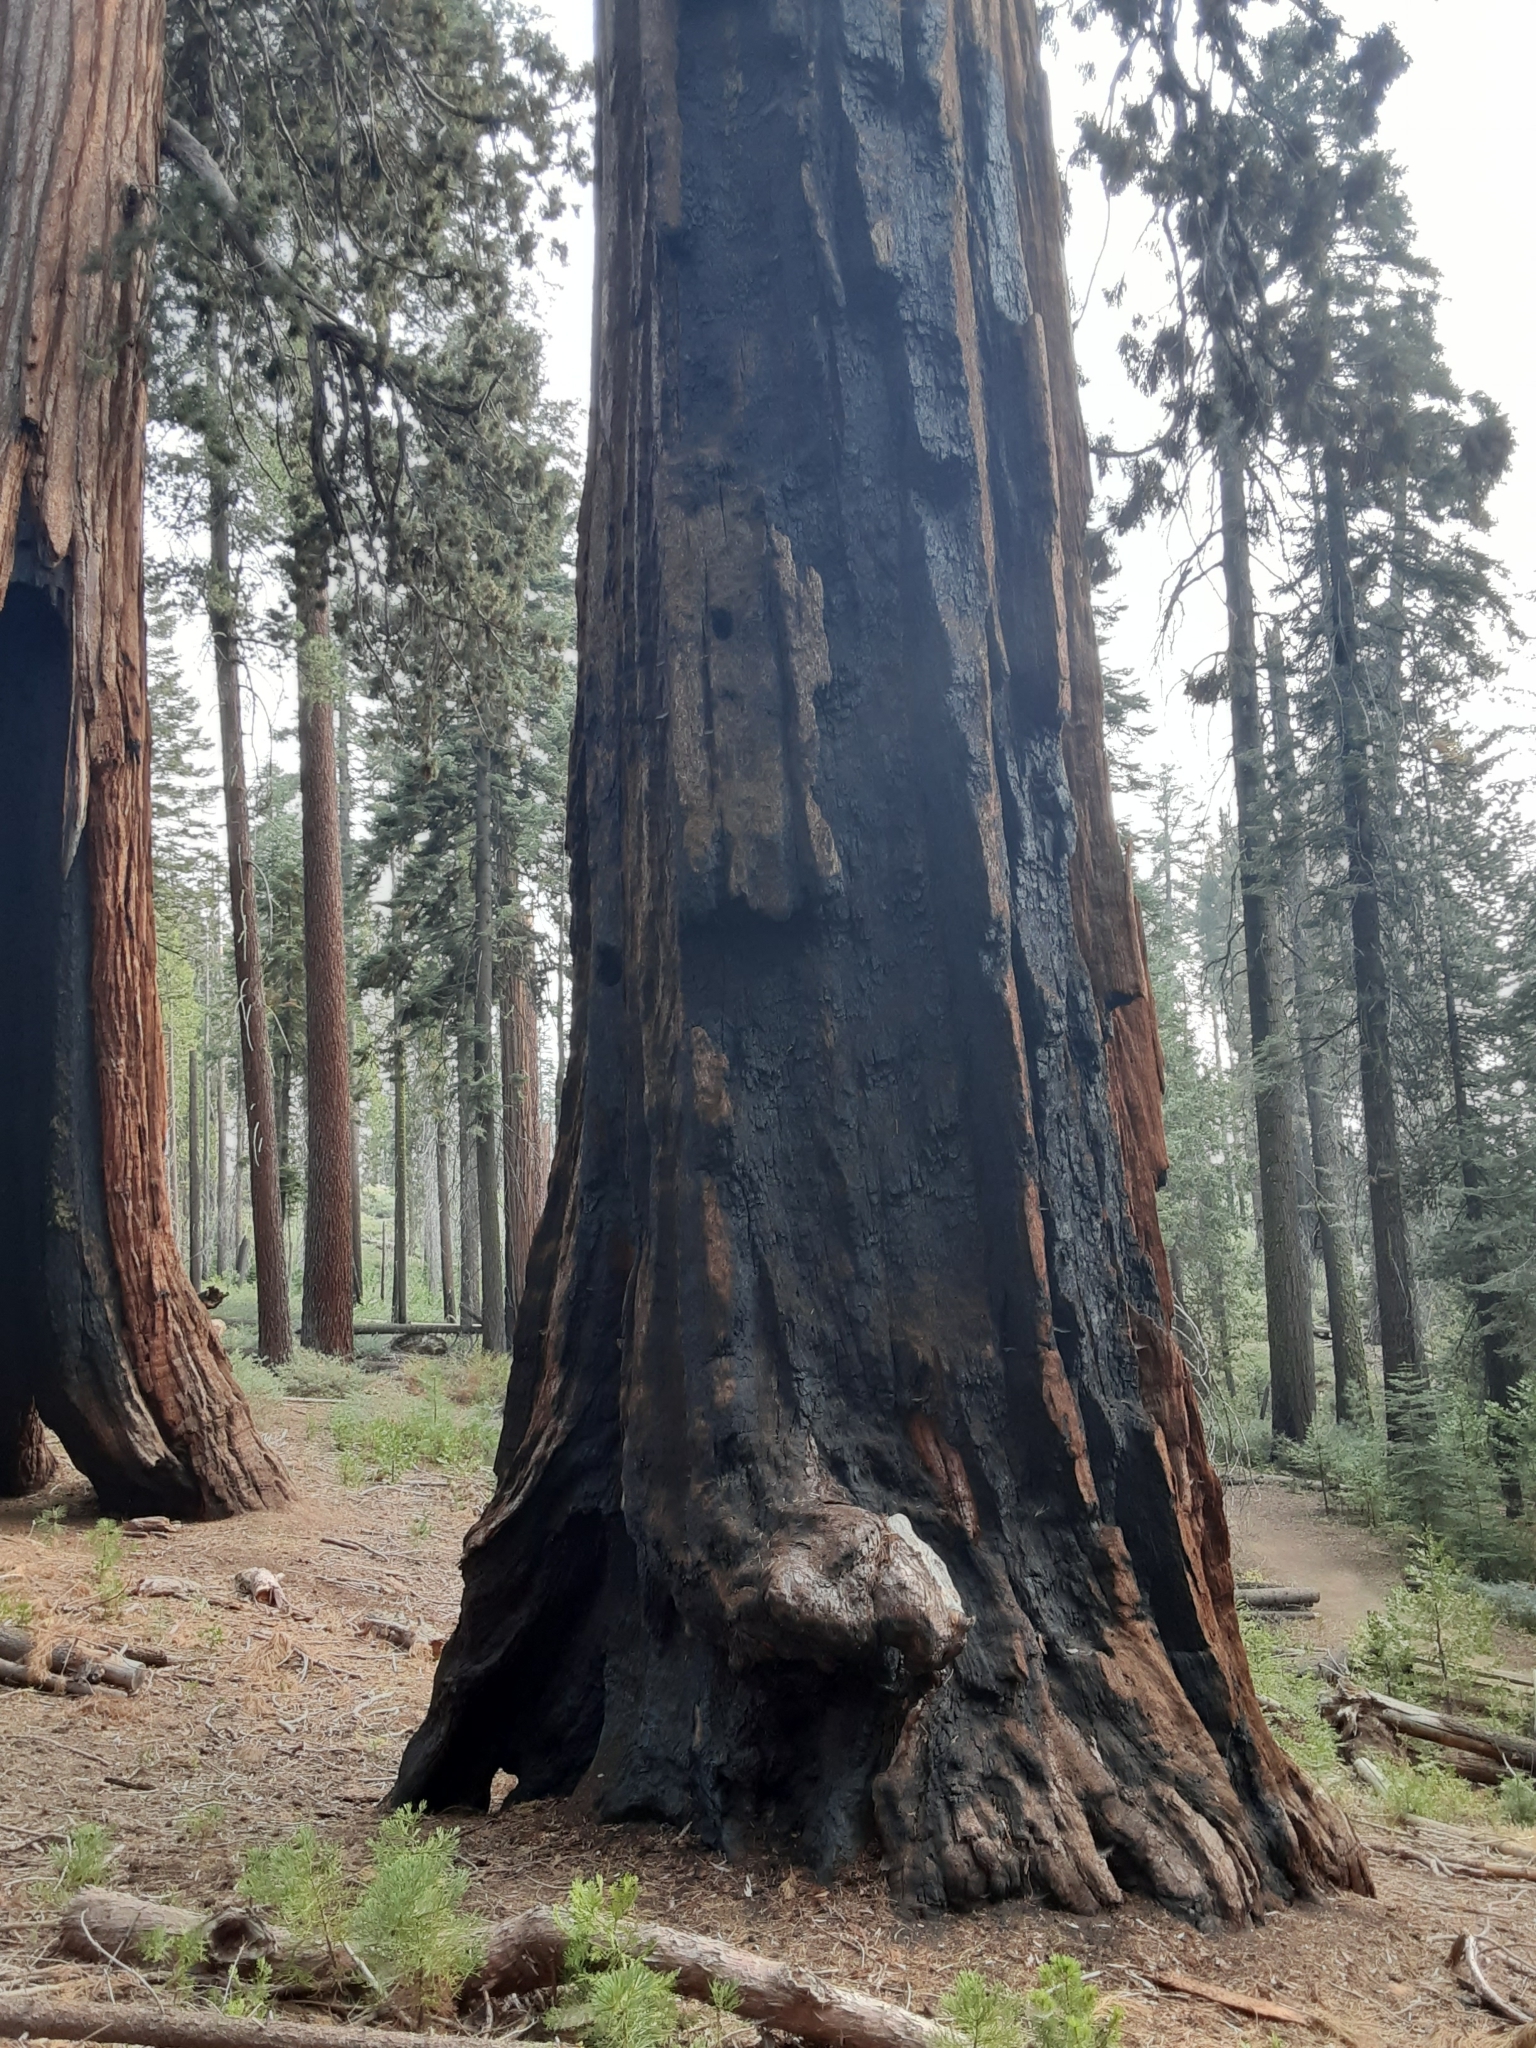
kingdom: Plantae
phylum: Tracheophyta
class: Pinopsida
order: Pinales
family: Cupressaceae
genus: Sequoiadendron
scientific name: Sequoiadendron giganteum
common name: Wellingtonia
